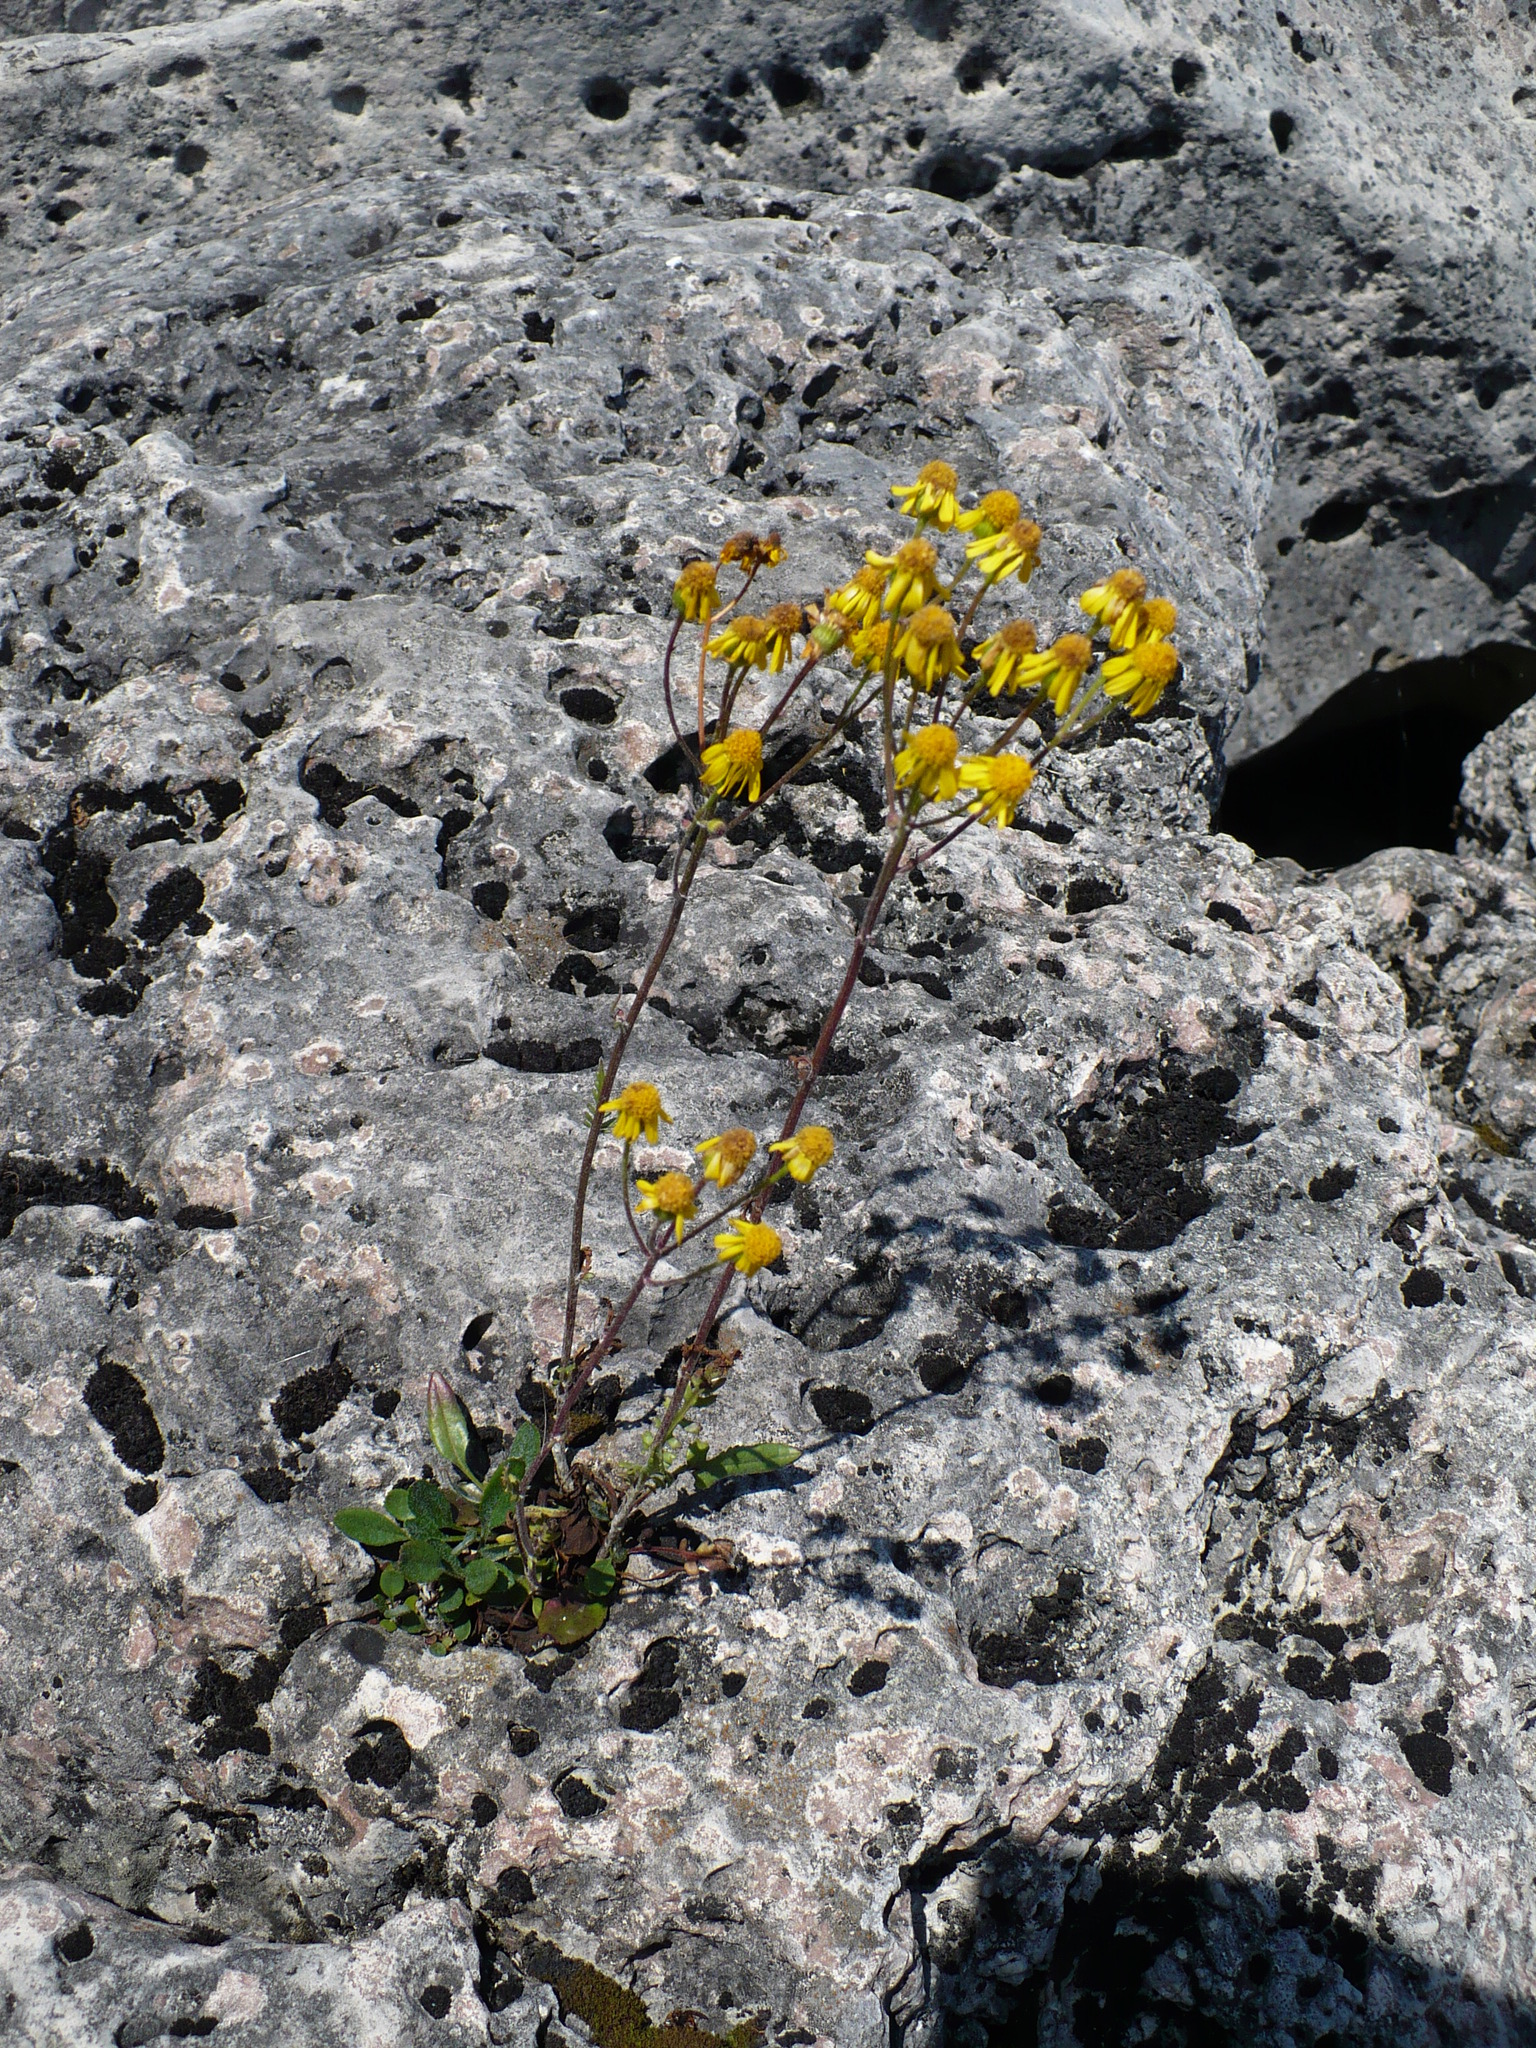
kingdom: Plantae
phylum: Tracheophyta
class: Magnoliopsida
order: Asterales
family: Asteraceae
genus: Packera
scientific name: Packera paupercula
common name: Balsam groundsel
